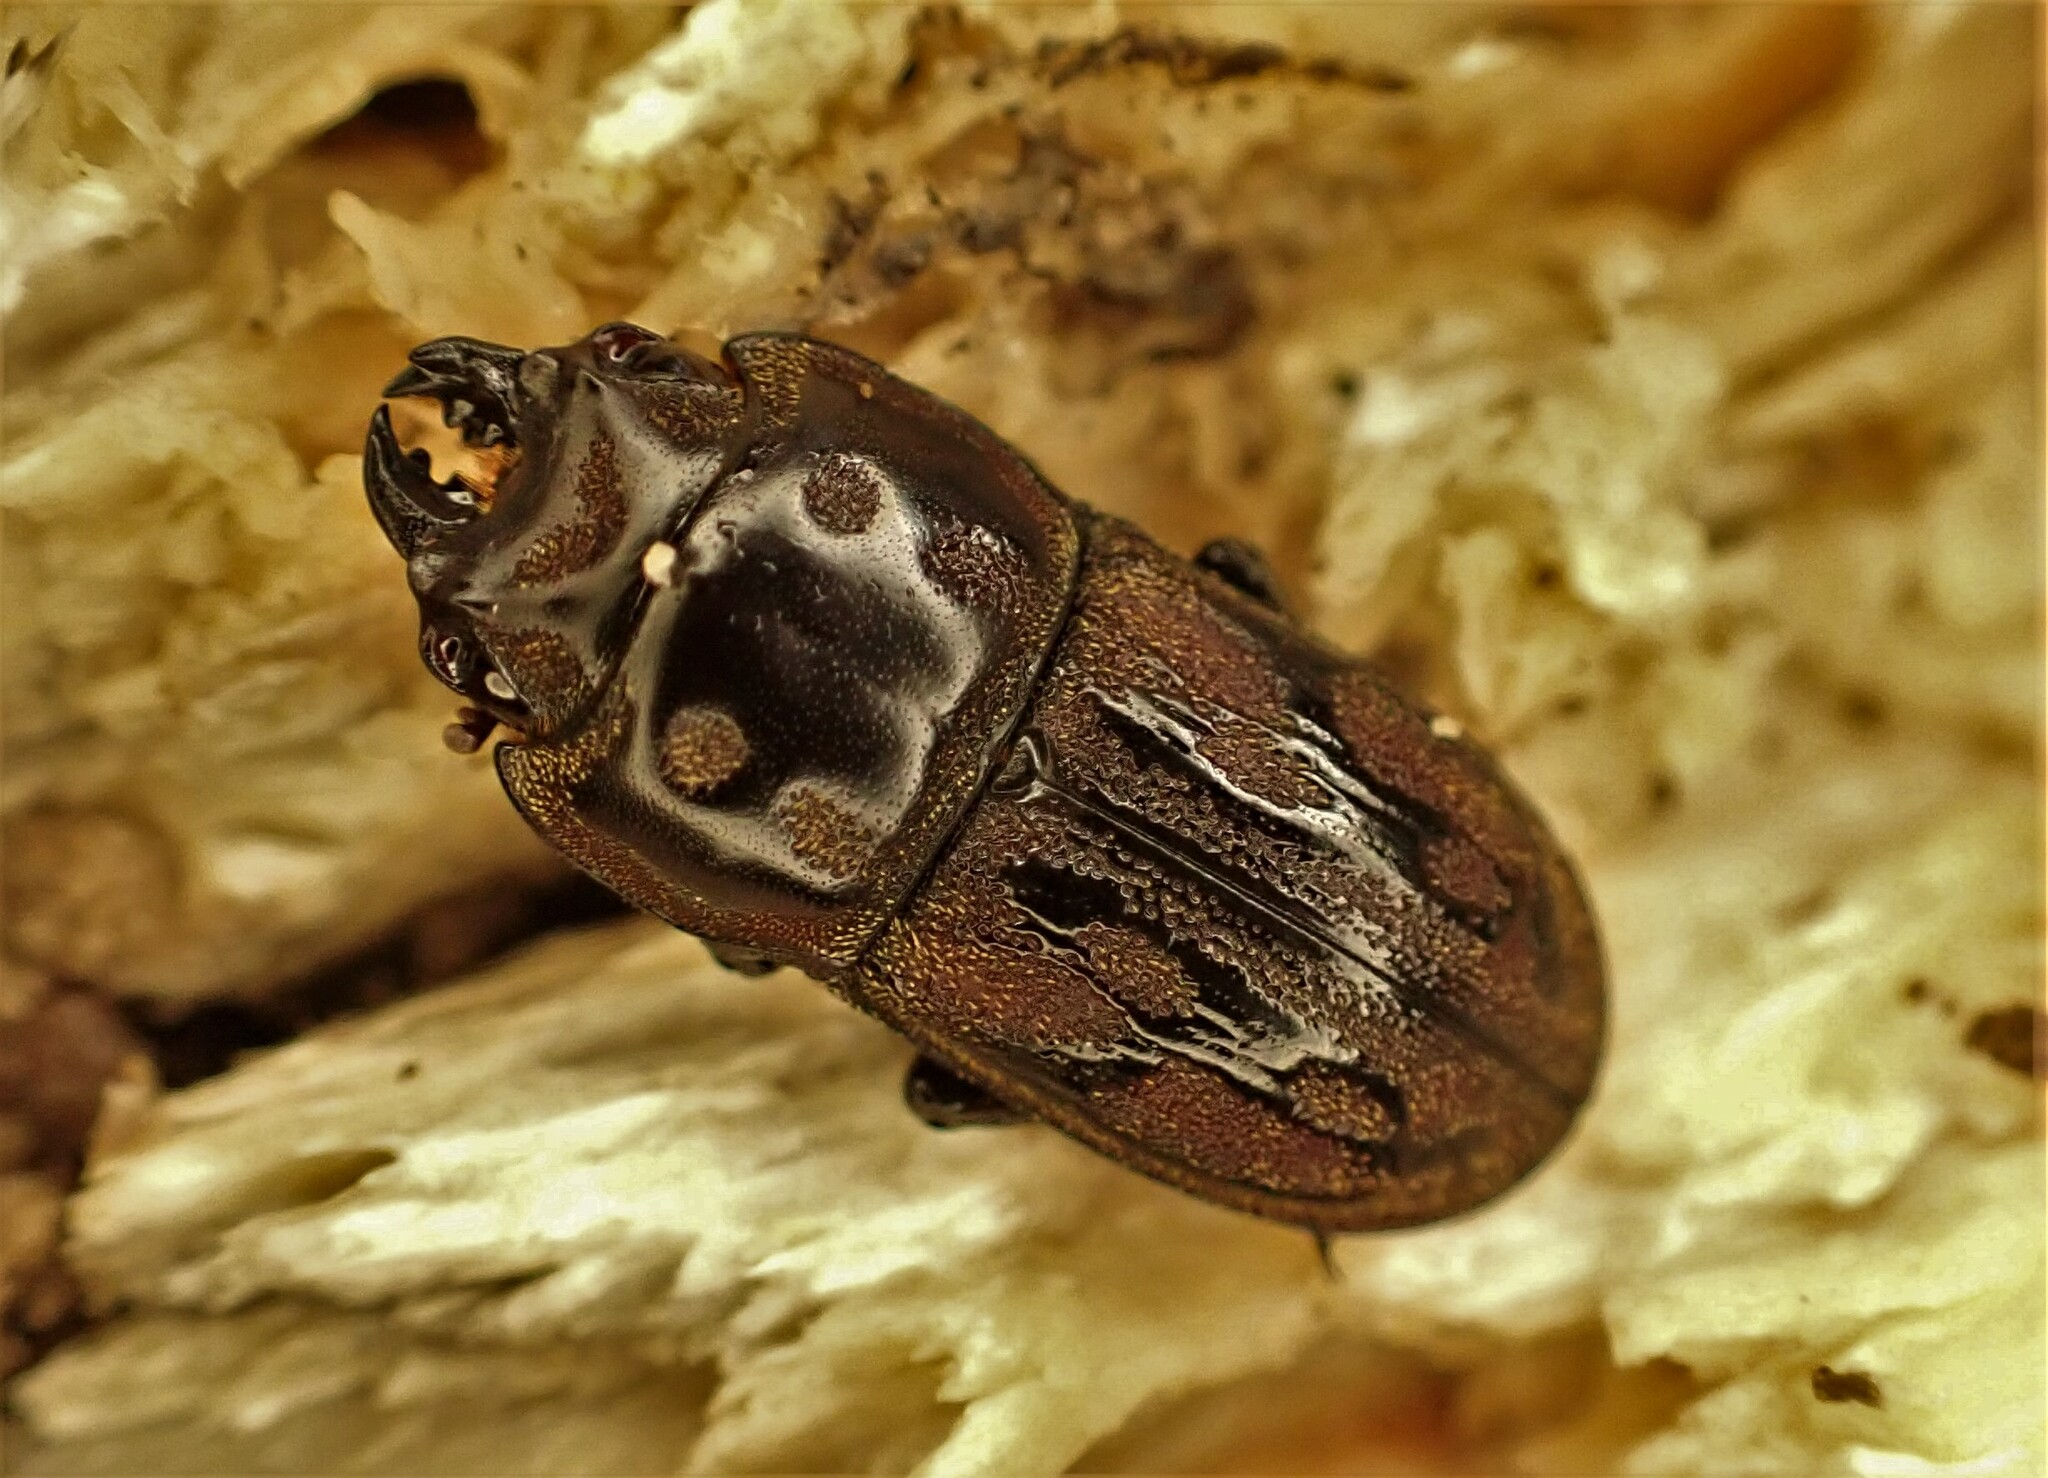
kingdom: Animalia
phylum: Arthropoda
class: Insecta
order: Coleoptera
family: Lucanidae
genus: Paralissotes
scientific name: Paralissotes reticulatus
